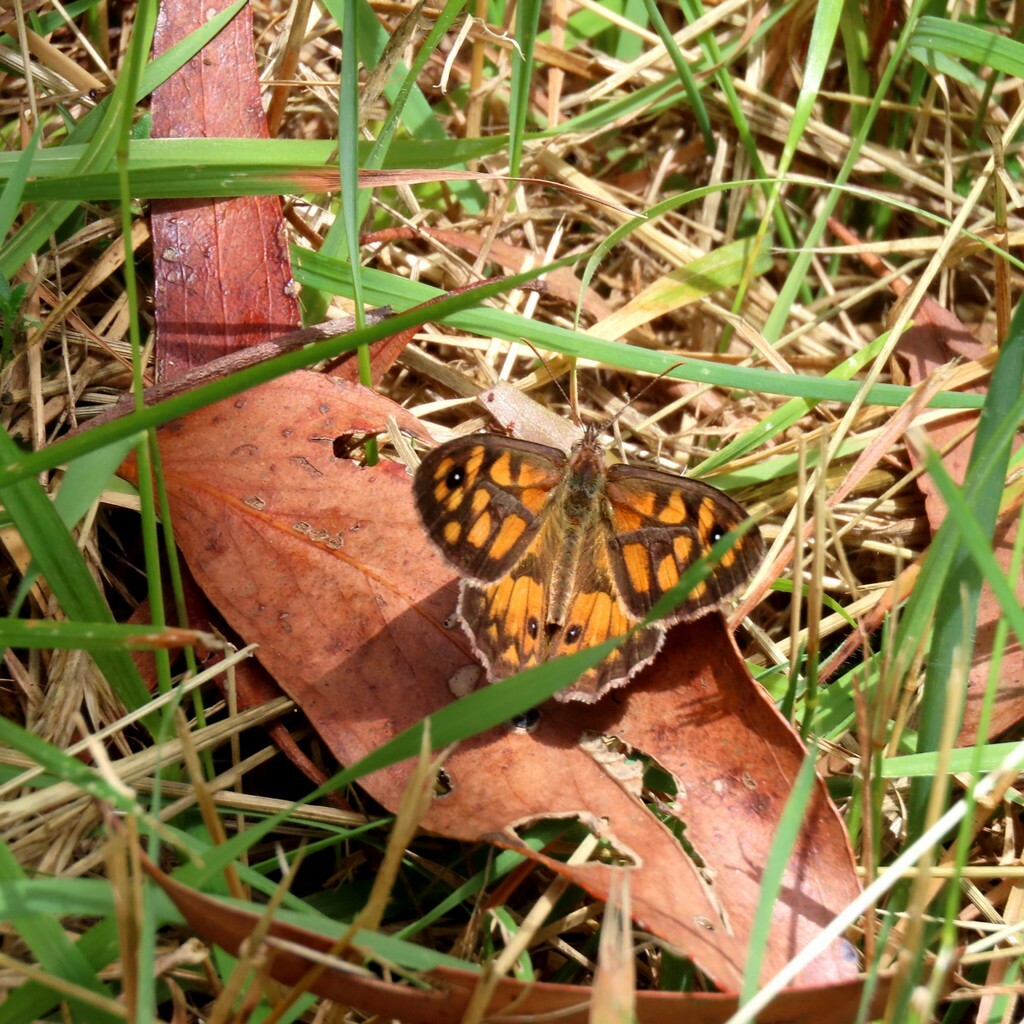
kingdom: Animalia
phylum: Arthropoda
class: Insecta
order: Lepidoptera
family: Nymphalidae
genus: Geitoneura
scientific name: Geitoneura klugii
